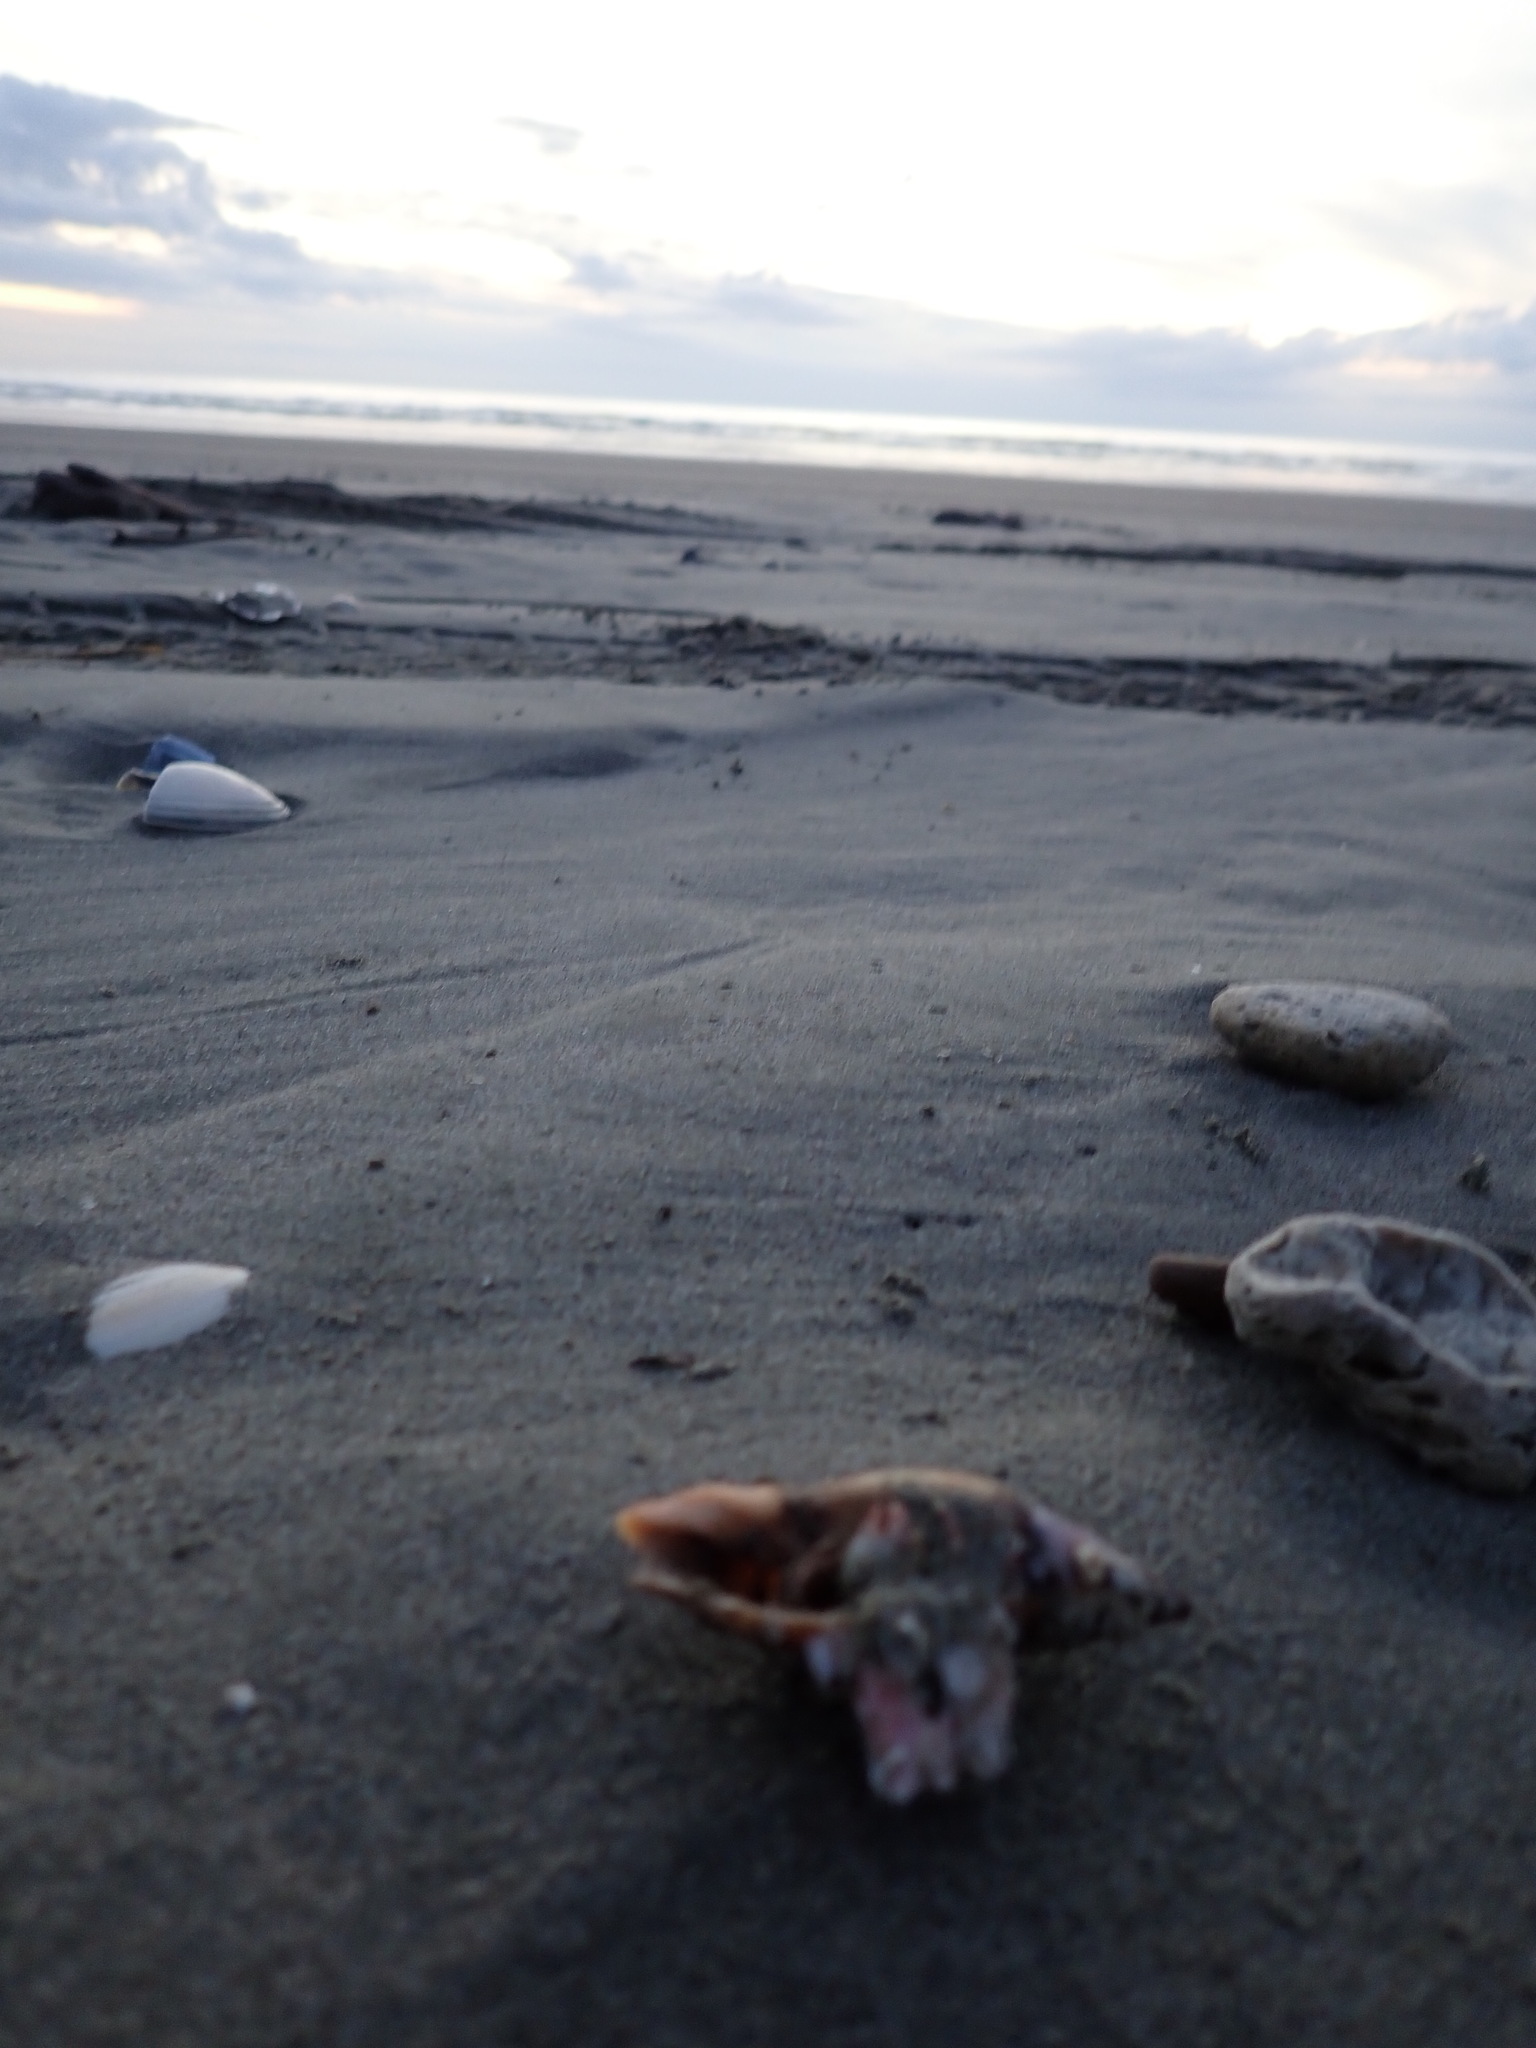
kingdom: Animalia
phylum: Mollusca
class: Gastropoda
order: Neogastropoda
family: Volutidae
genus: Alcithoe
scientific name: Alcithoe fusus
